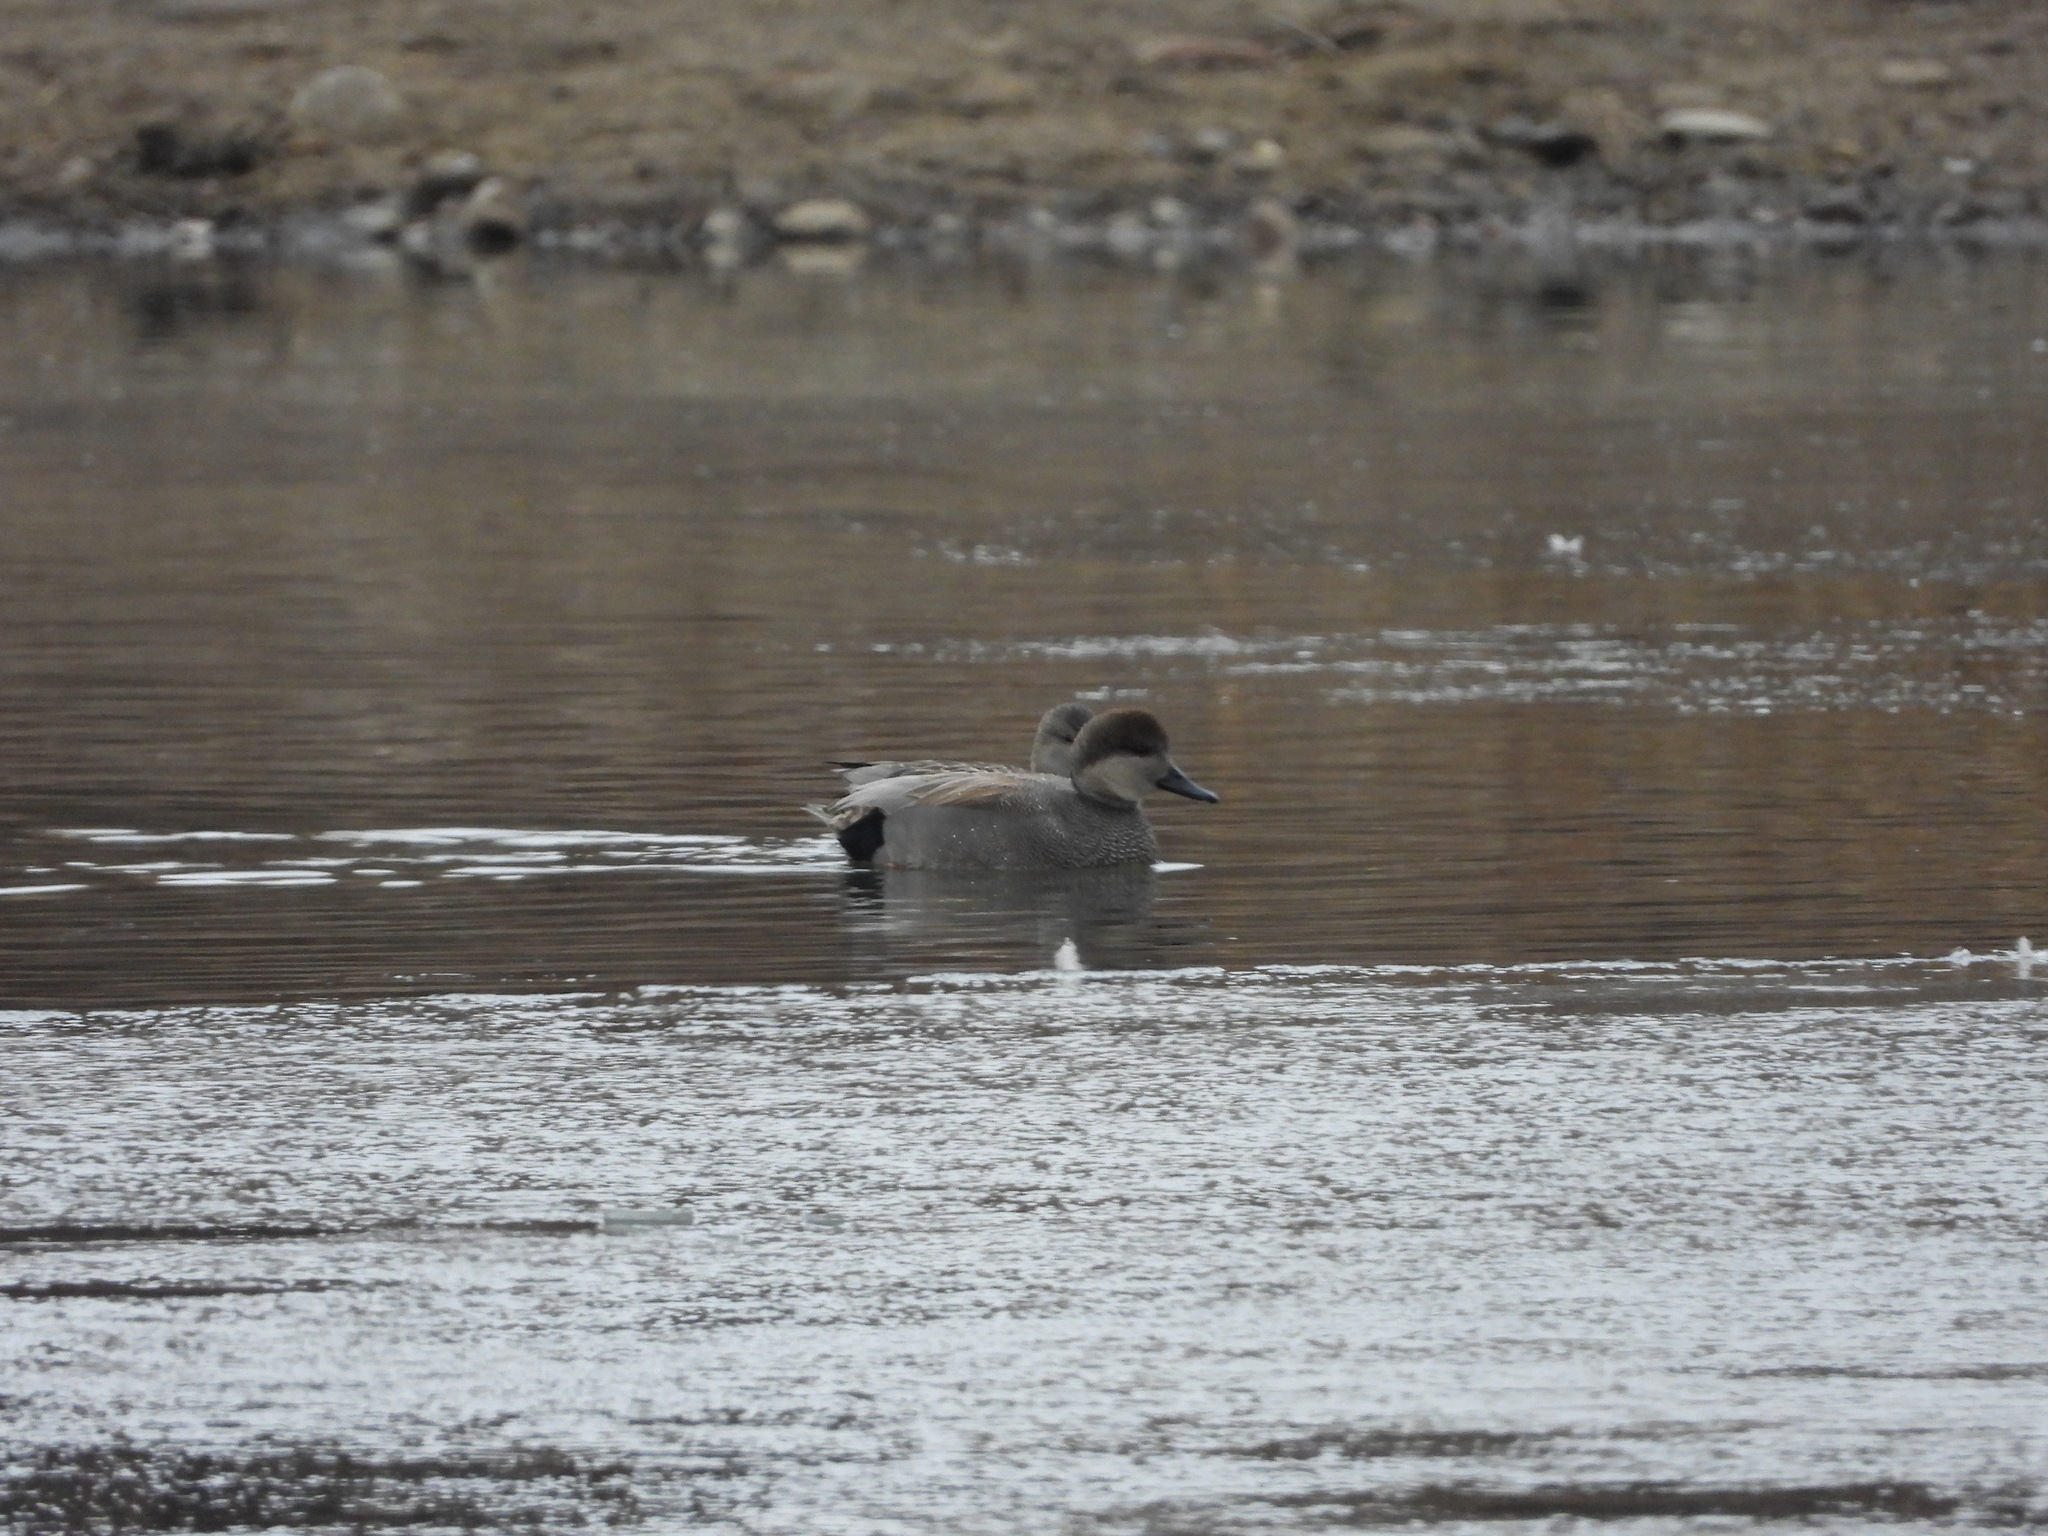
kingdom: Animalia
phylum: Chordata
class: Aves
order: Anseriformes
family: Anatidae
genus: Mareca
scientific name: Mareca strepera
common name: Gadwall
